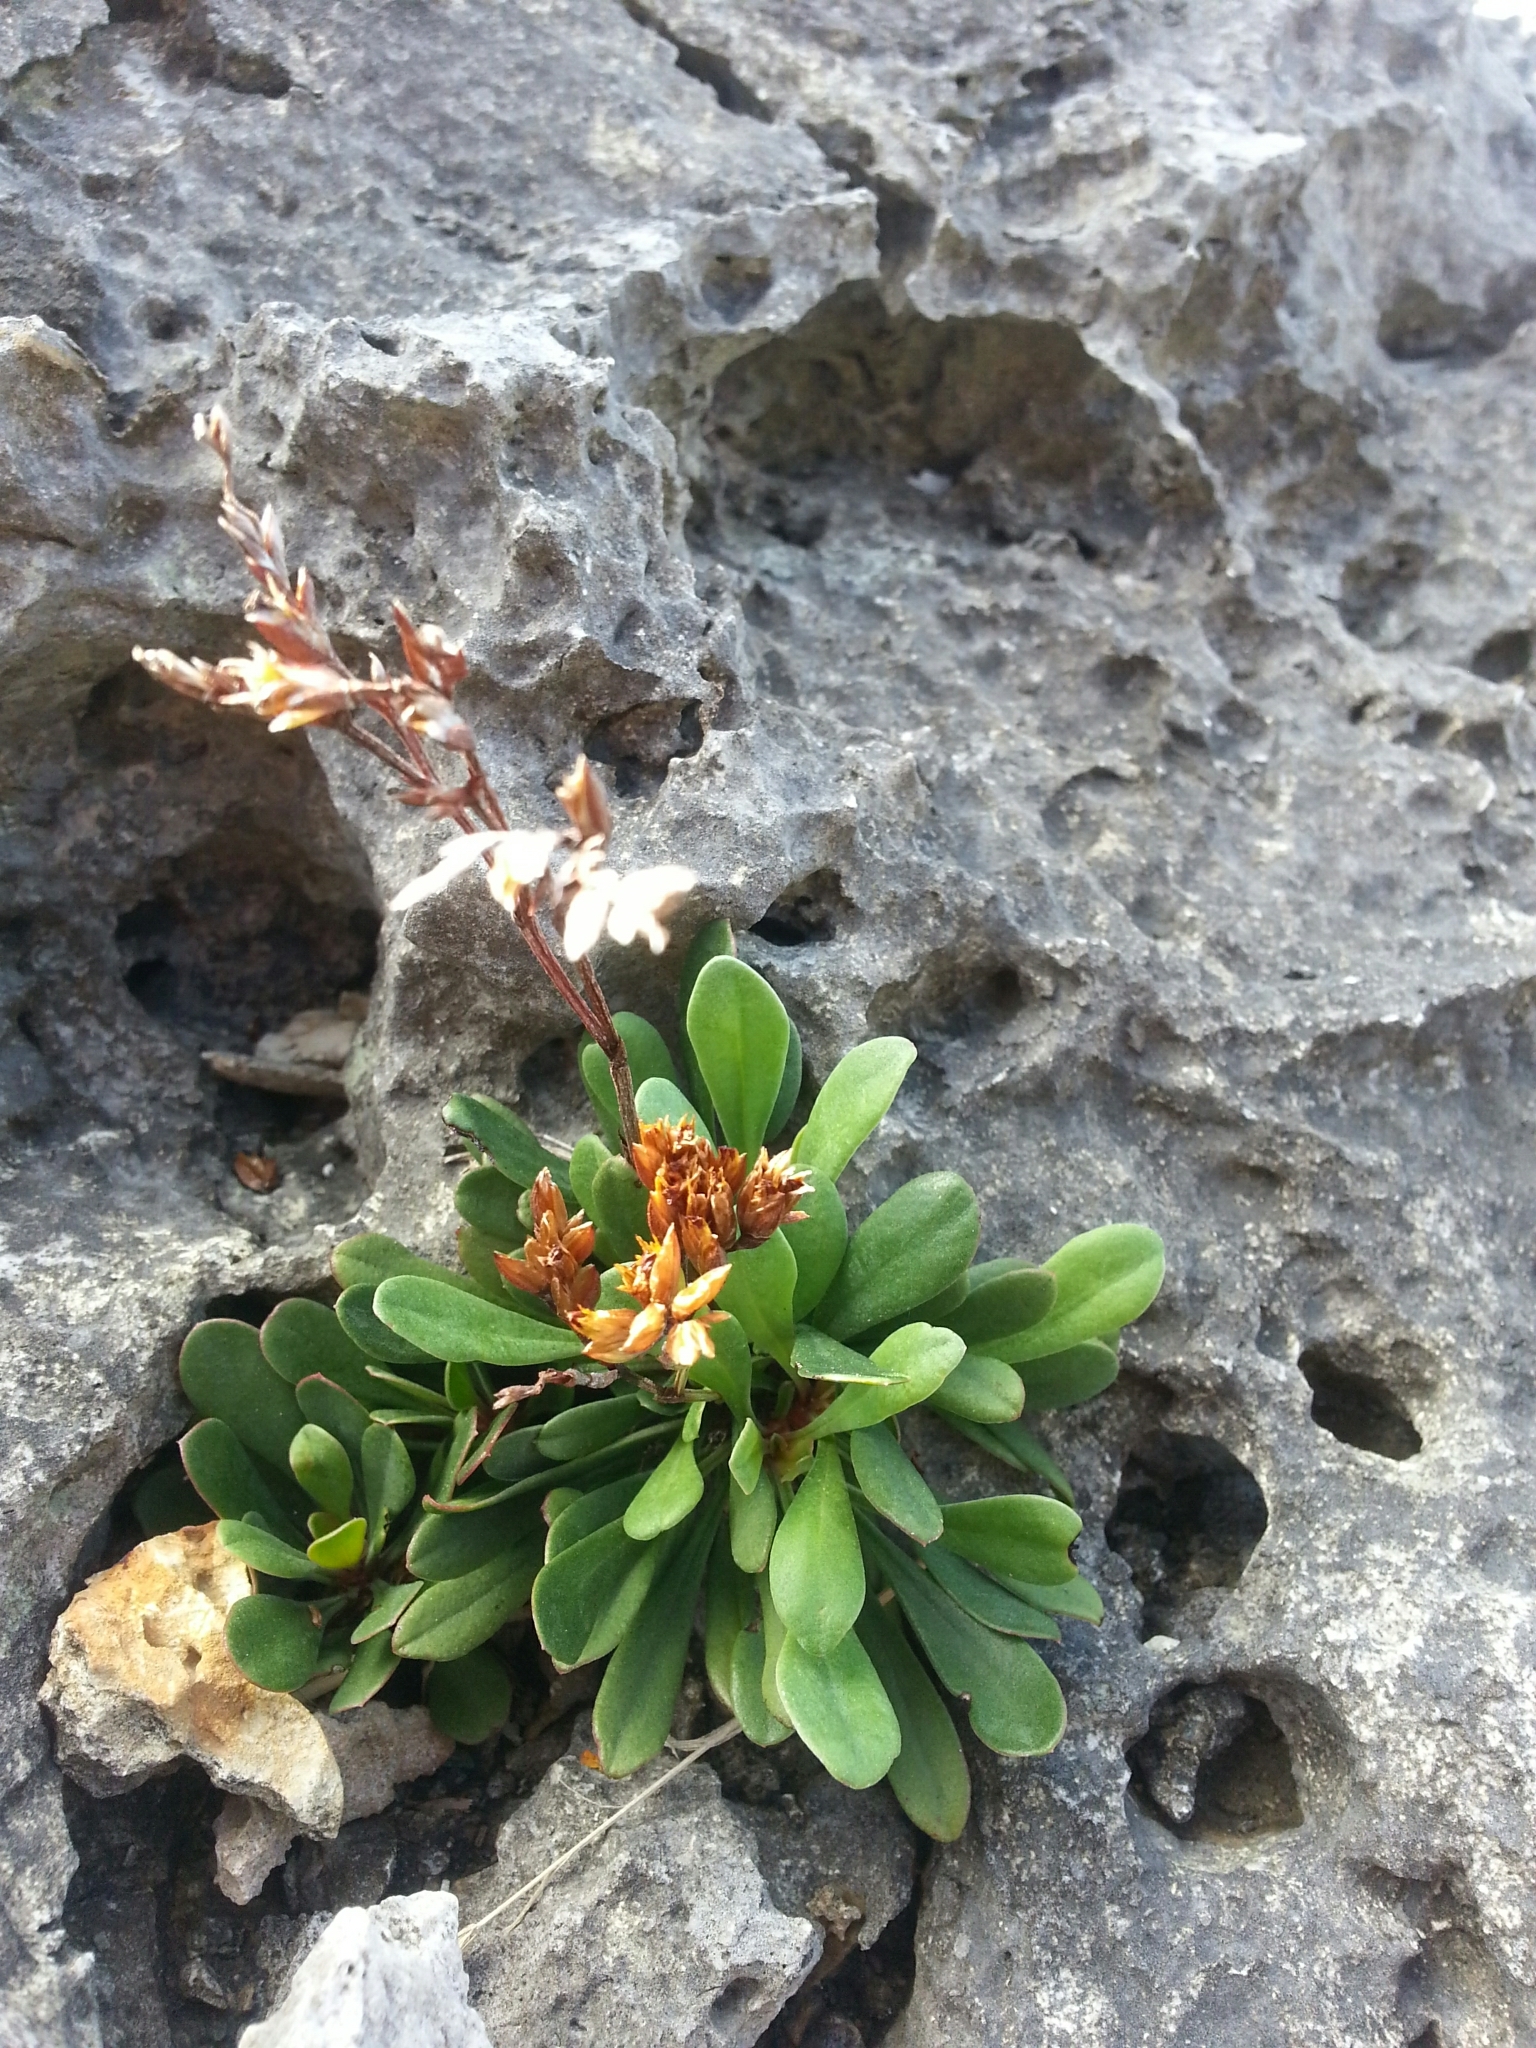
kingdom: Plantae
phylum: Tracheophyta
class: Magnoliopsida
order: Caryophyllales
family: Plumbaginaceae
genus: Limonium
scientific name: Limonium wrightii
